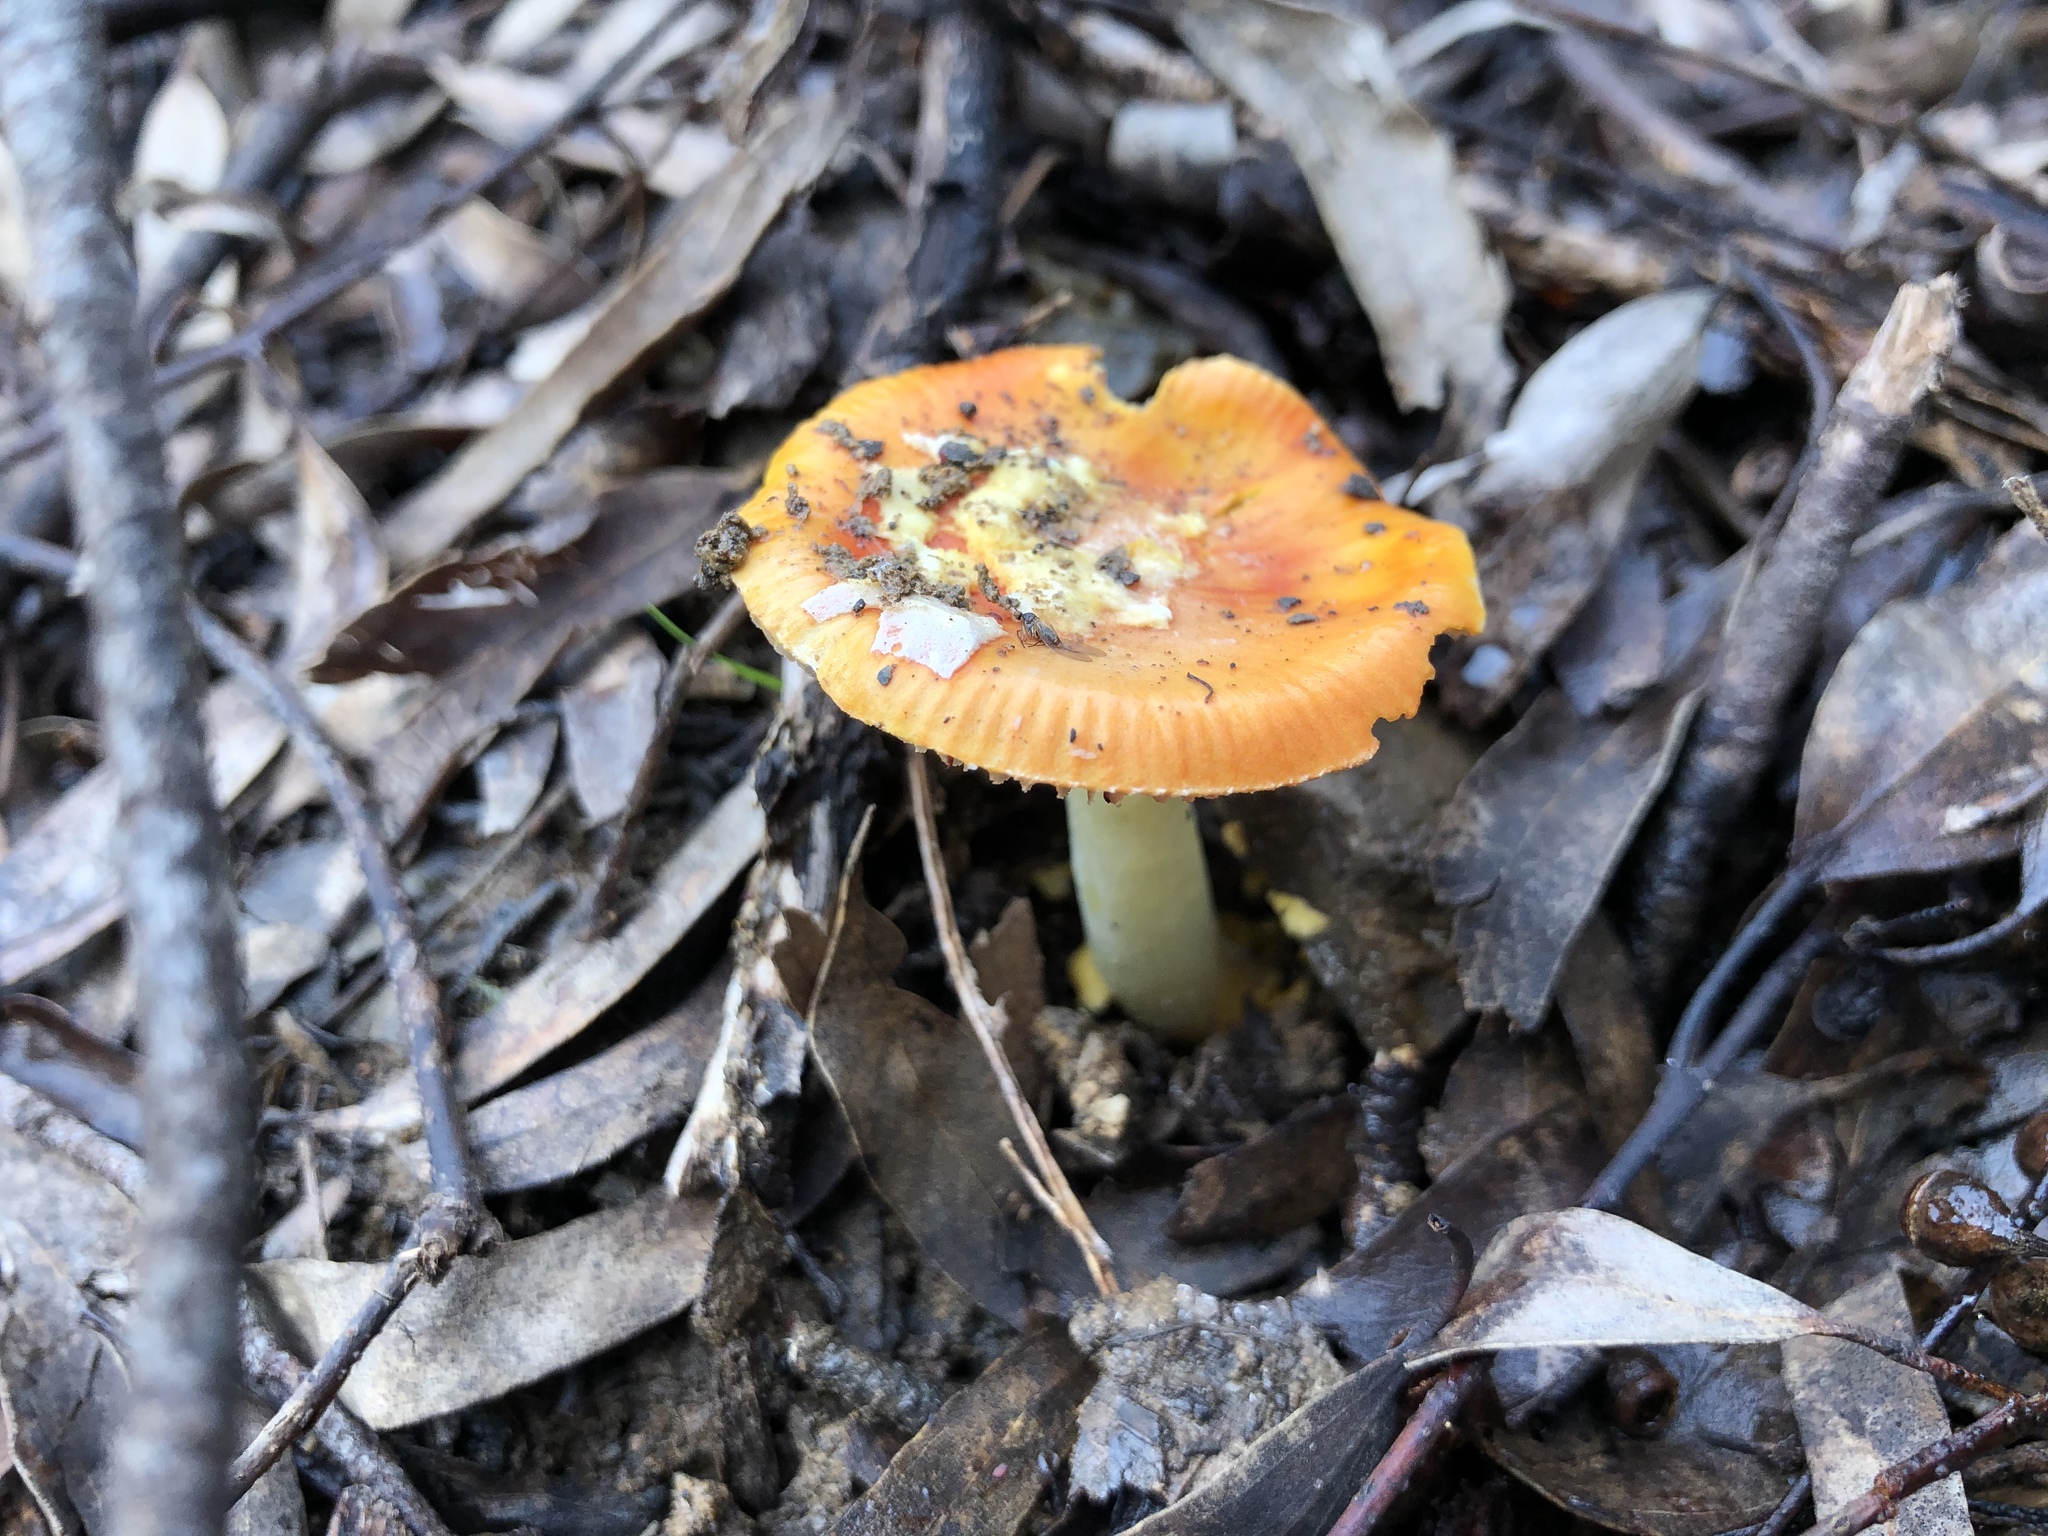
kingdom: Fungi
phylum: Basidiomycota
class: Agaricomycetes
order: Agaricales
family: Amanitaceae
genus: Amanita
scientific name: Amanita xanthocephala
